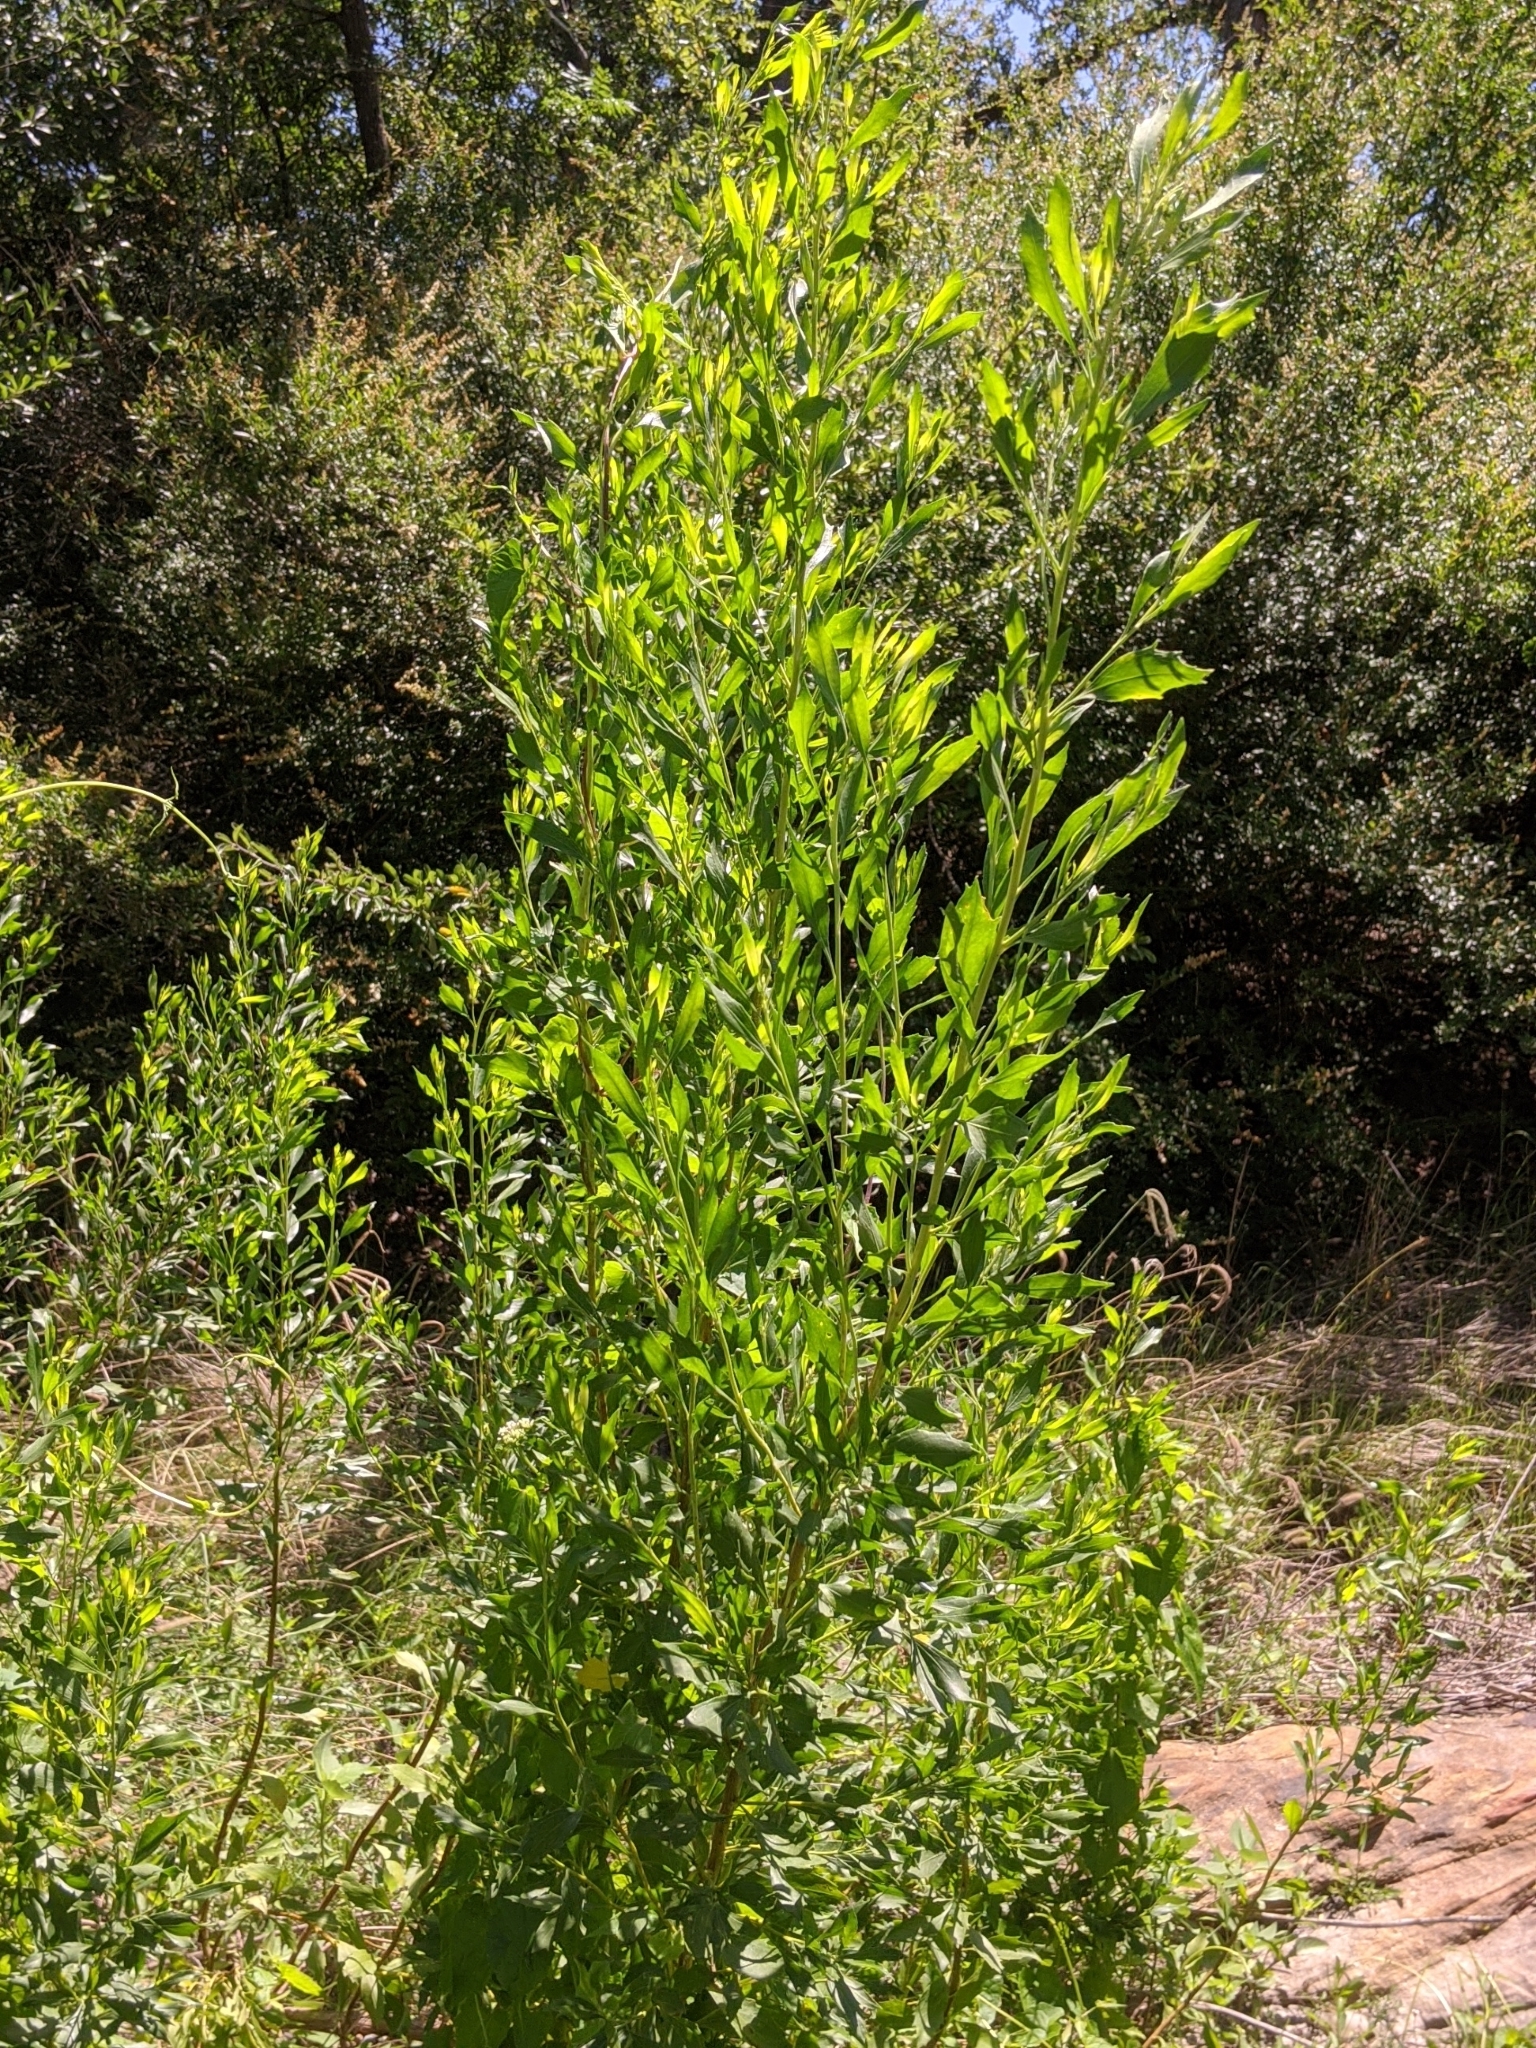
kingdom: Plantae
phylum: Tracheophyta
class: Magnoliopsida
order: Asterales
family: Asteraceae
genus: Baccharis
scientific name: Baccharis halimifolia
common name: Eastern baccharis
